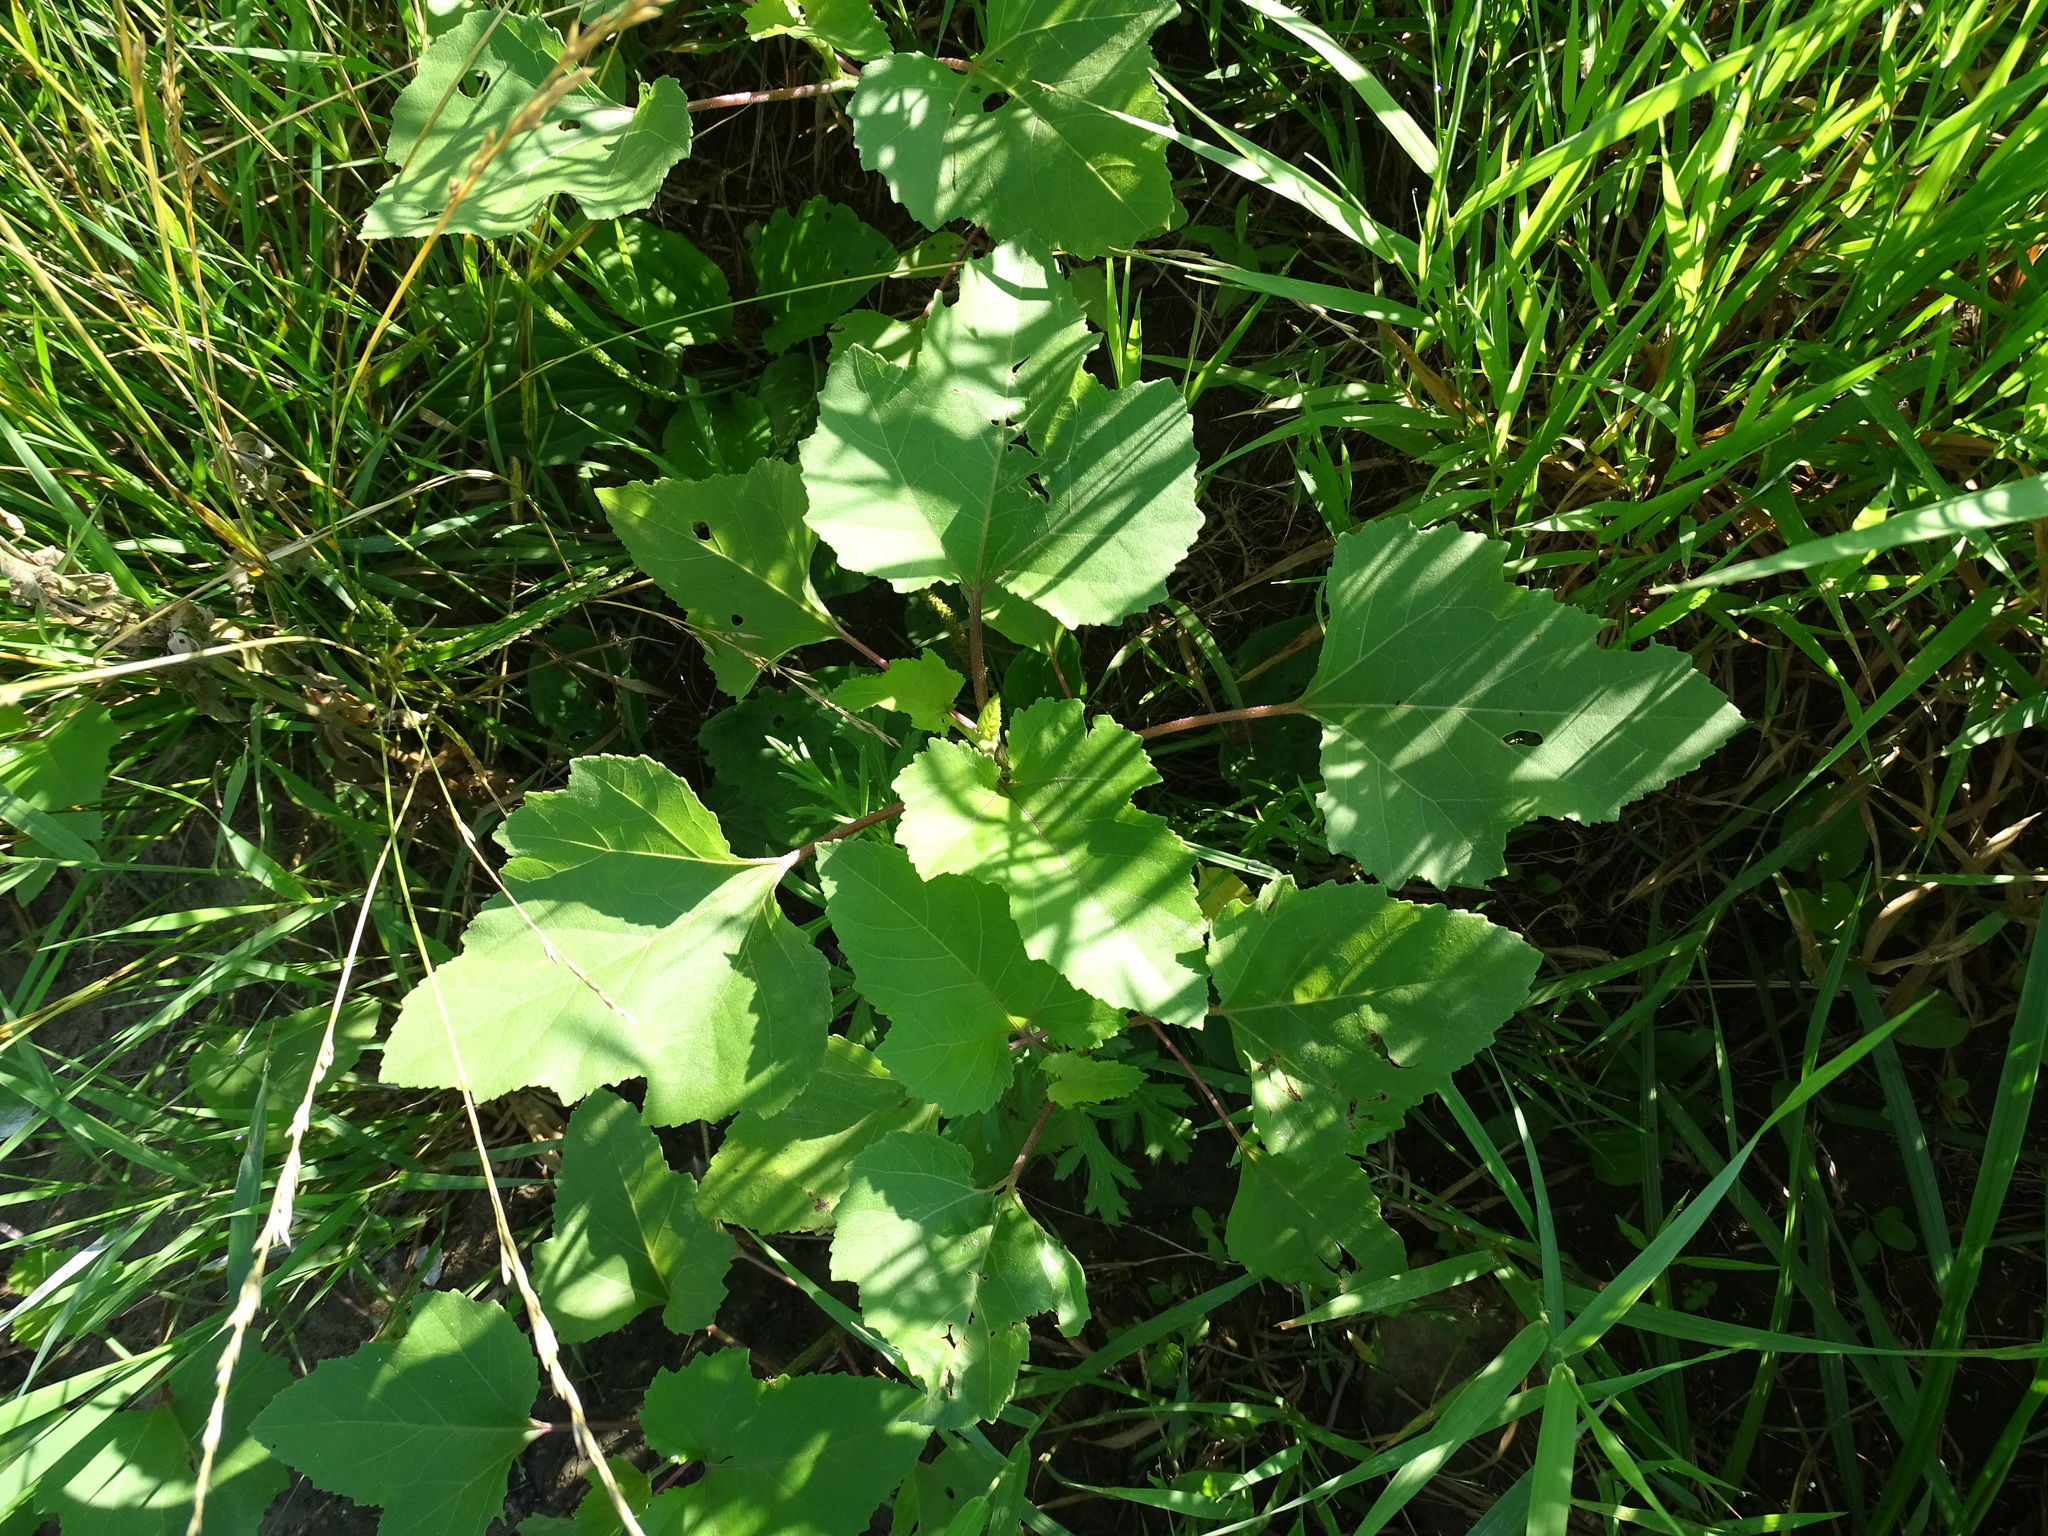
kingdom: Plantae
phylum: Tracheophyta
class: Magnoliopsida
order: Asterales
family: Asteraceae
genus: Xanthium
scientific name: Xanthium strumarium
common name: Rough cocklebur
